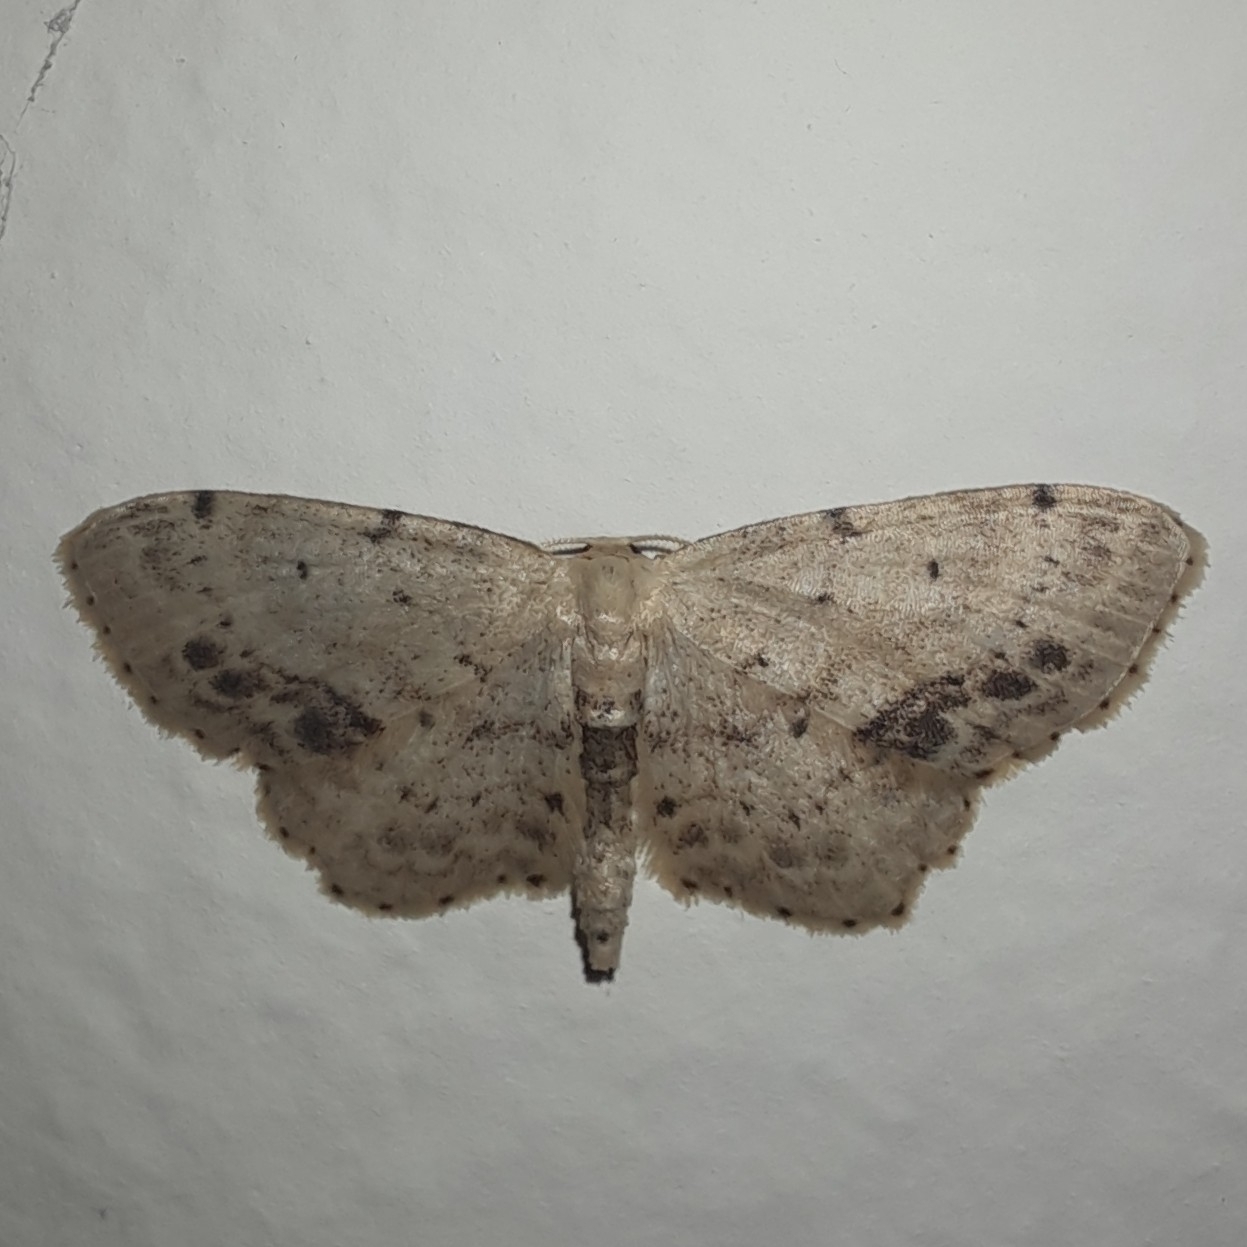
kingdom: Animalia
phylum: Arthropoda
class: Insecta
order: Lepidoptera
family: Geometridae
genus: Idaea
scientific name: Idaea dimidiata
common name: Single-dotted wave
